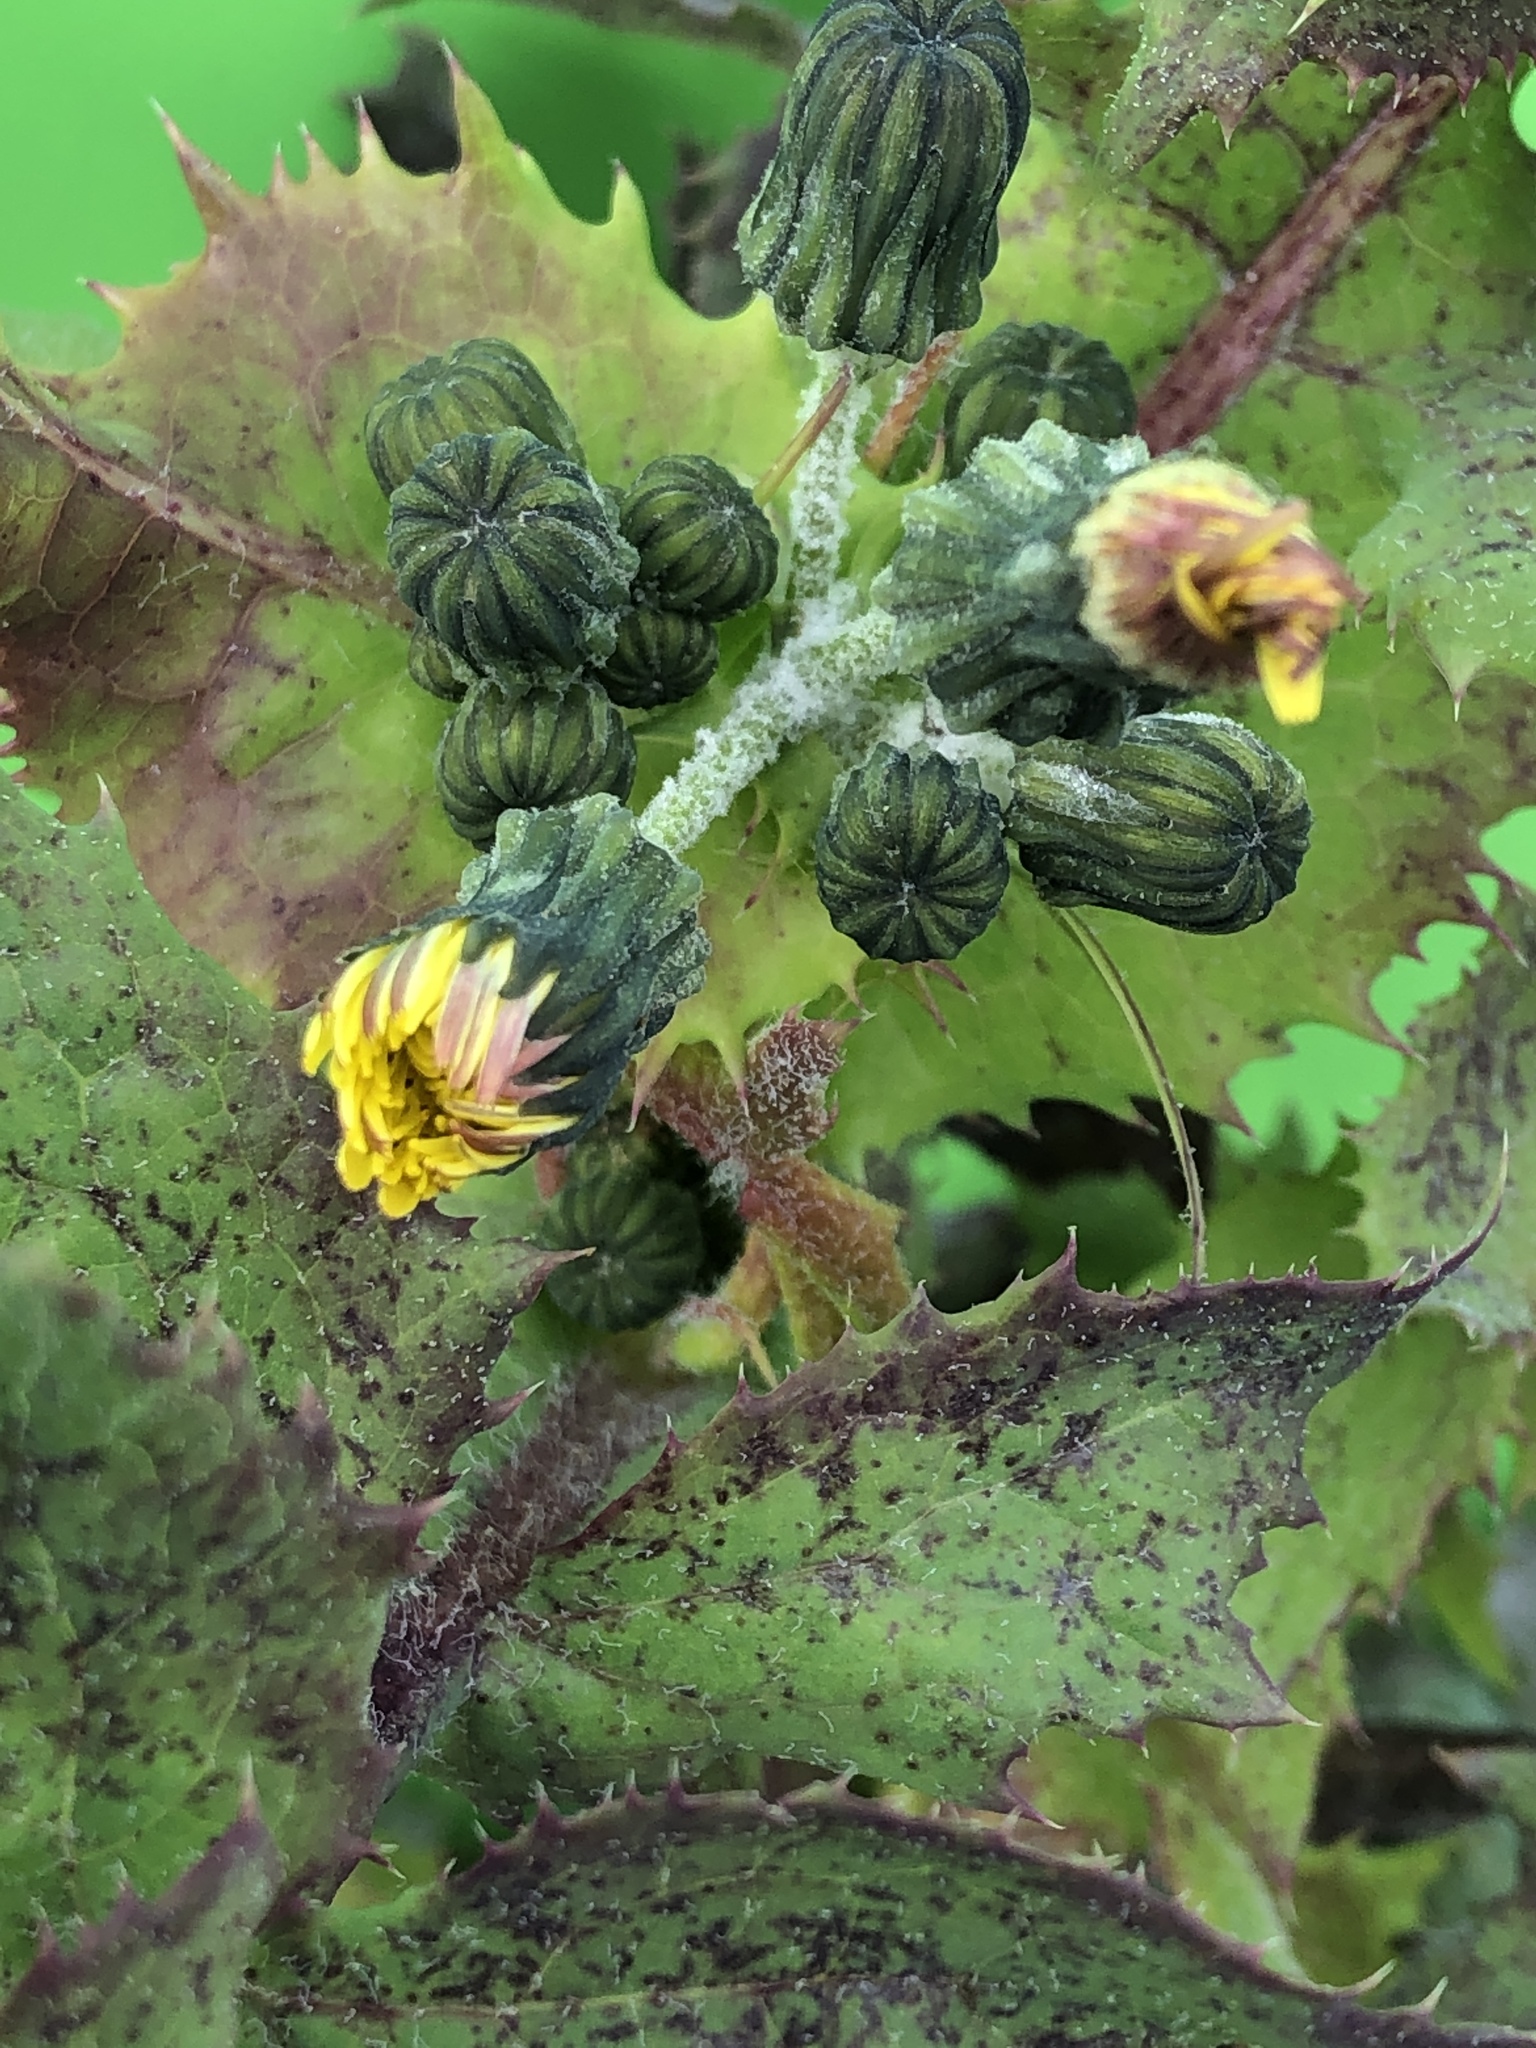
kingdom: Plantae
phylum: Tracheophyta
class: Magnoliopsida
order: Asterales
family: Asteraceae
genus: Sonchus
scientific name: Sonchus oleraceus
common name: Common sowthistle
